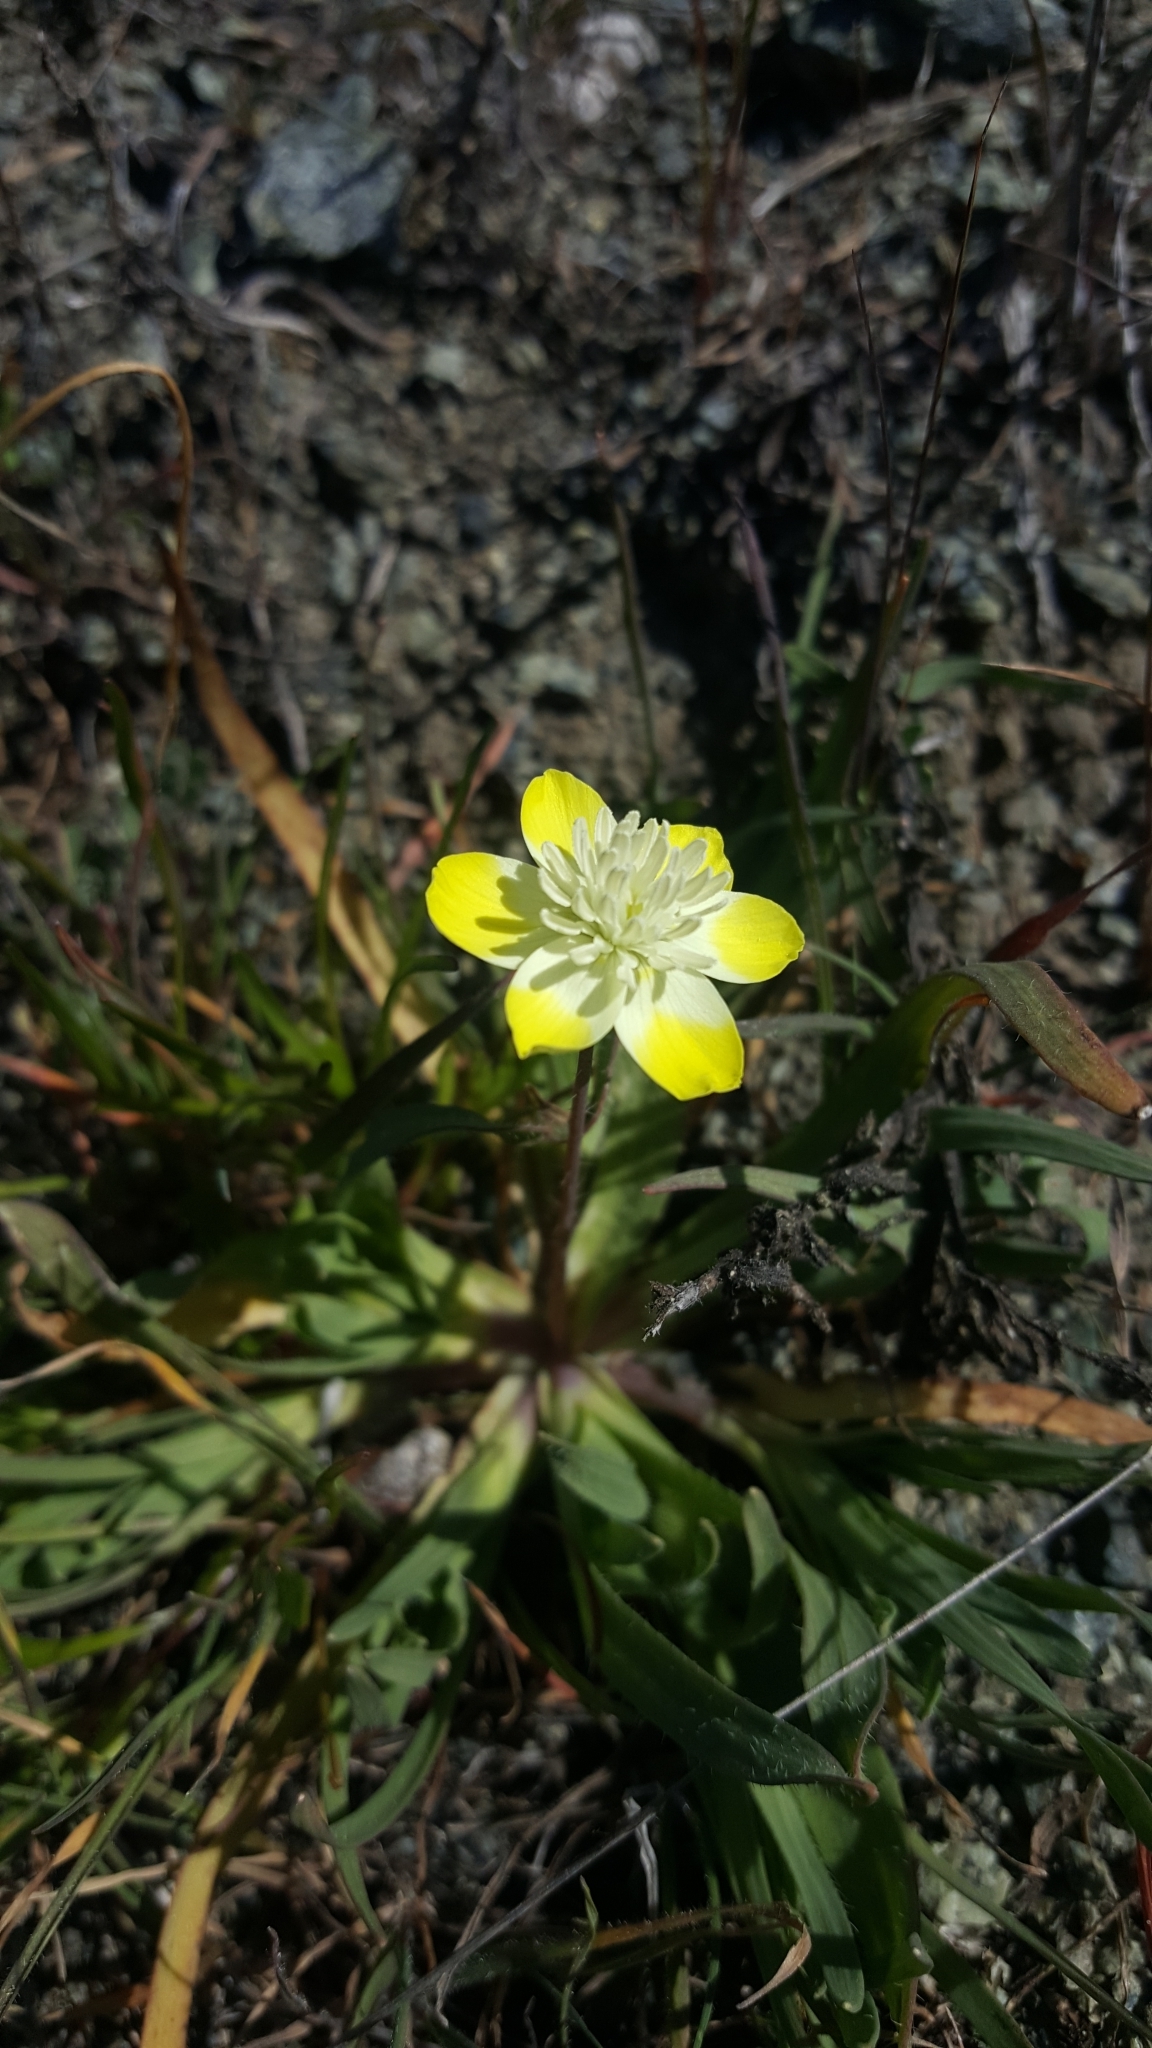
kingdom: Plantae
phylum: Tracheophyta
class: Magnoliopsida
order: Ranunculales
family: Papaveraceae
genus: Platystemon
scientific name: Platystemon californicus
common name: Cream-cups
